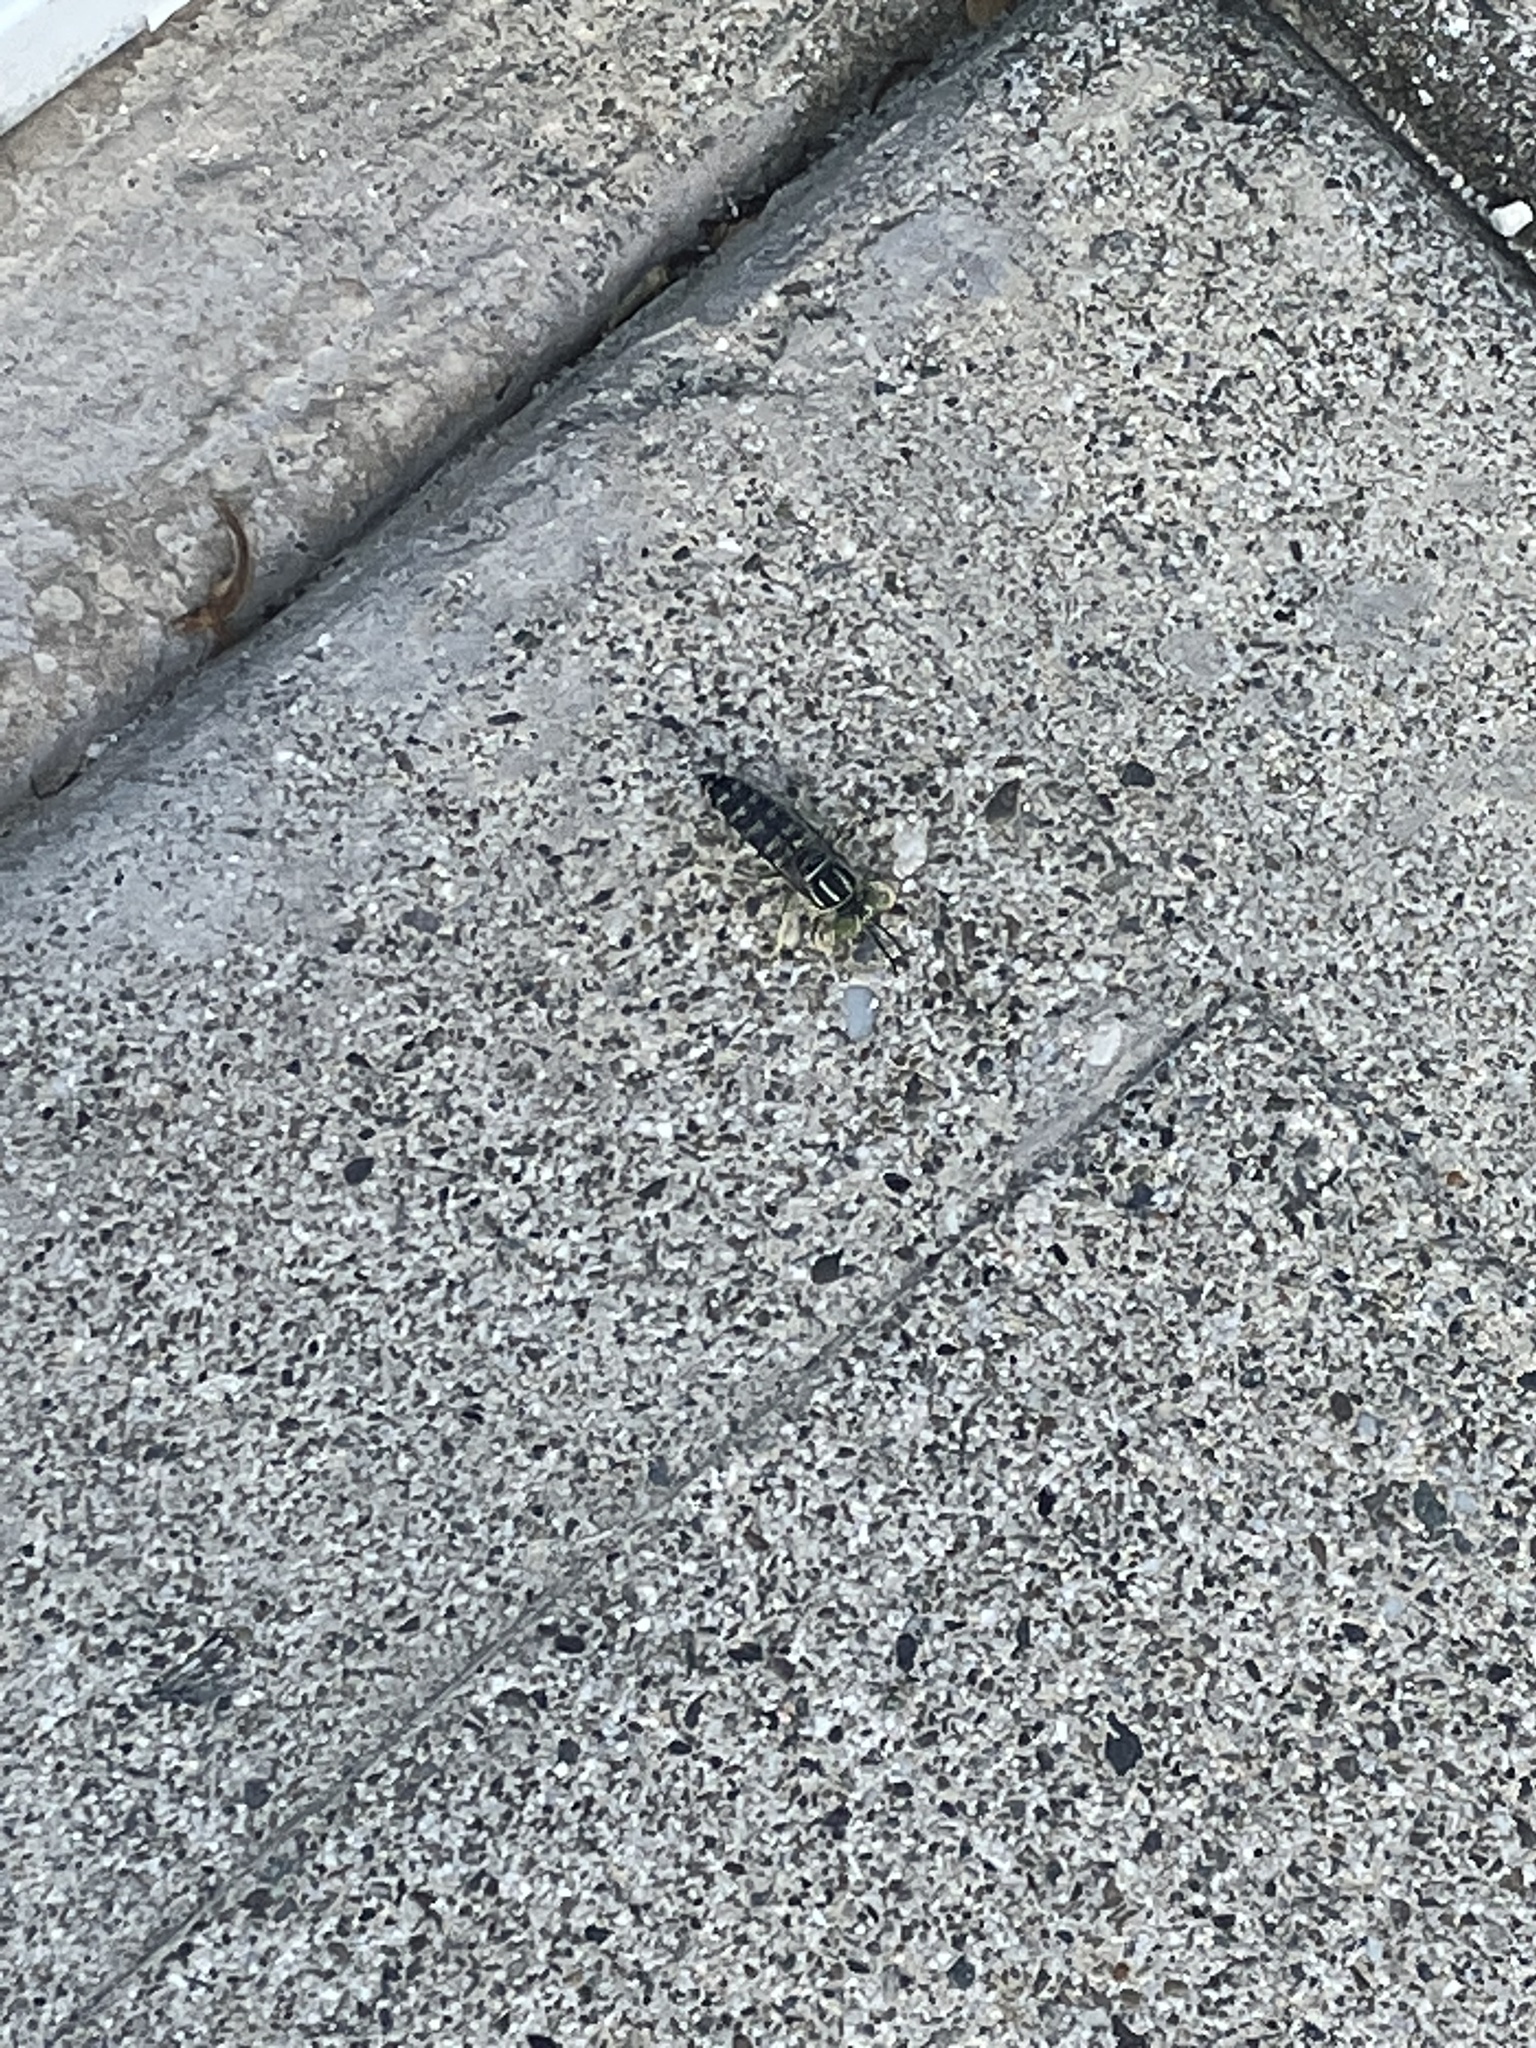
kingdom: Animalia
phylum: Arthropoda
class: Insecta
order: Hymenoptera
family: Crabronidae
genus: Stictia
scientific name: Stictia signata
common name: Sand wasp
